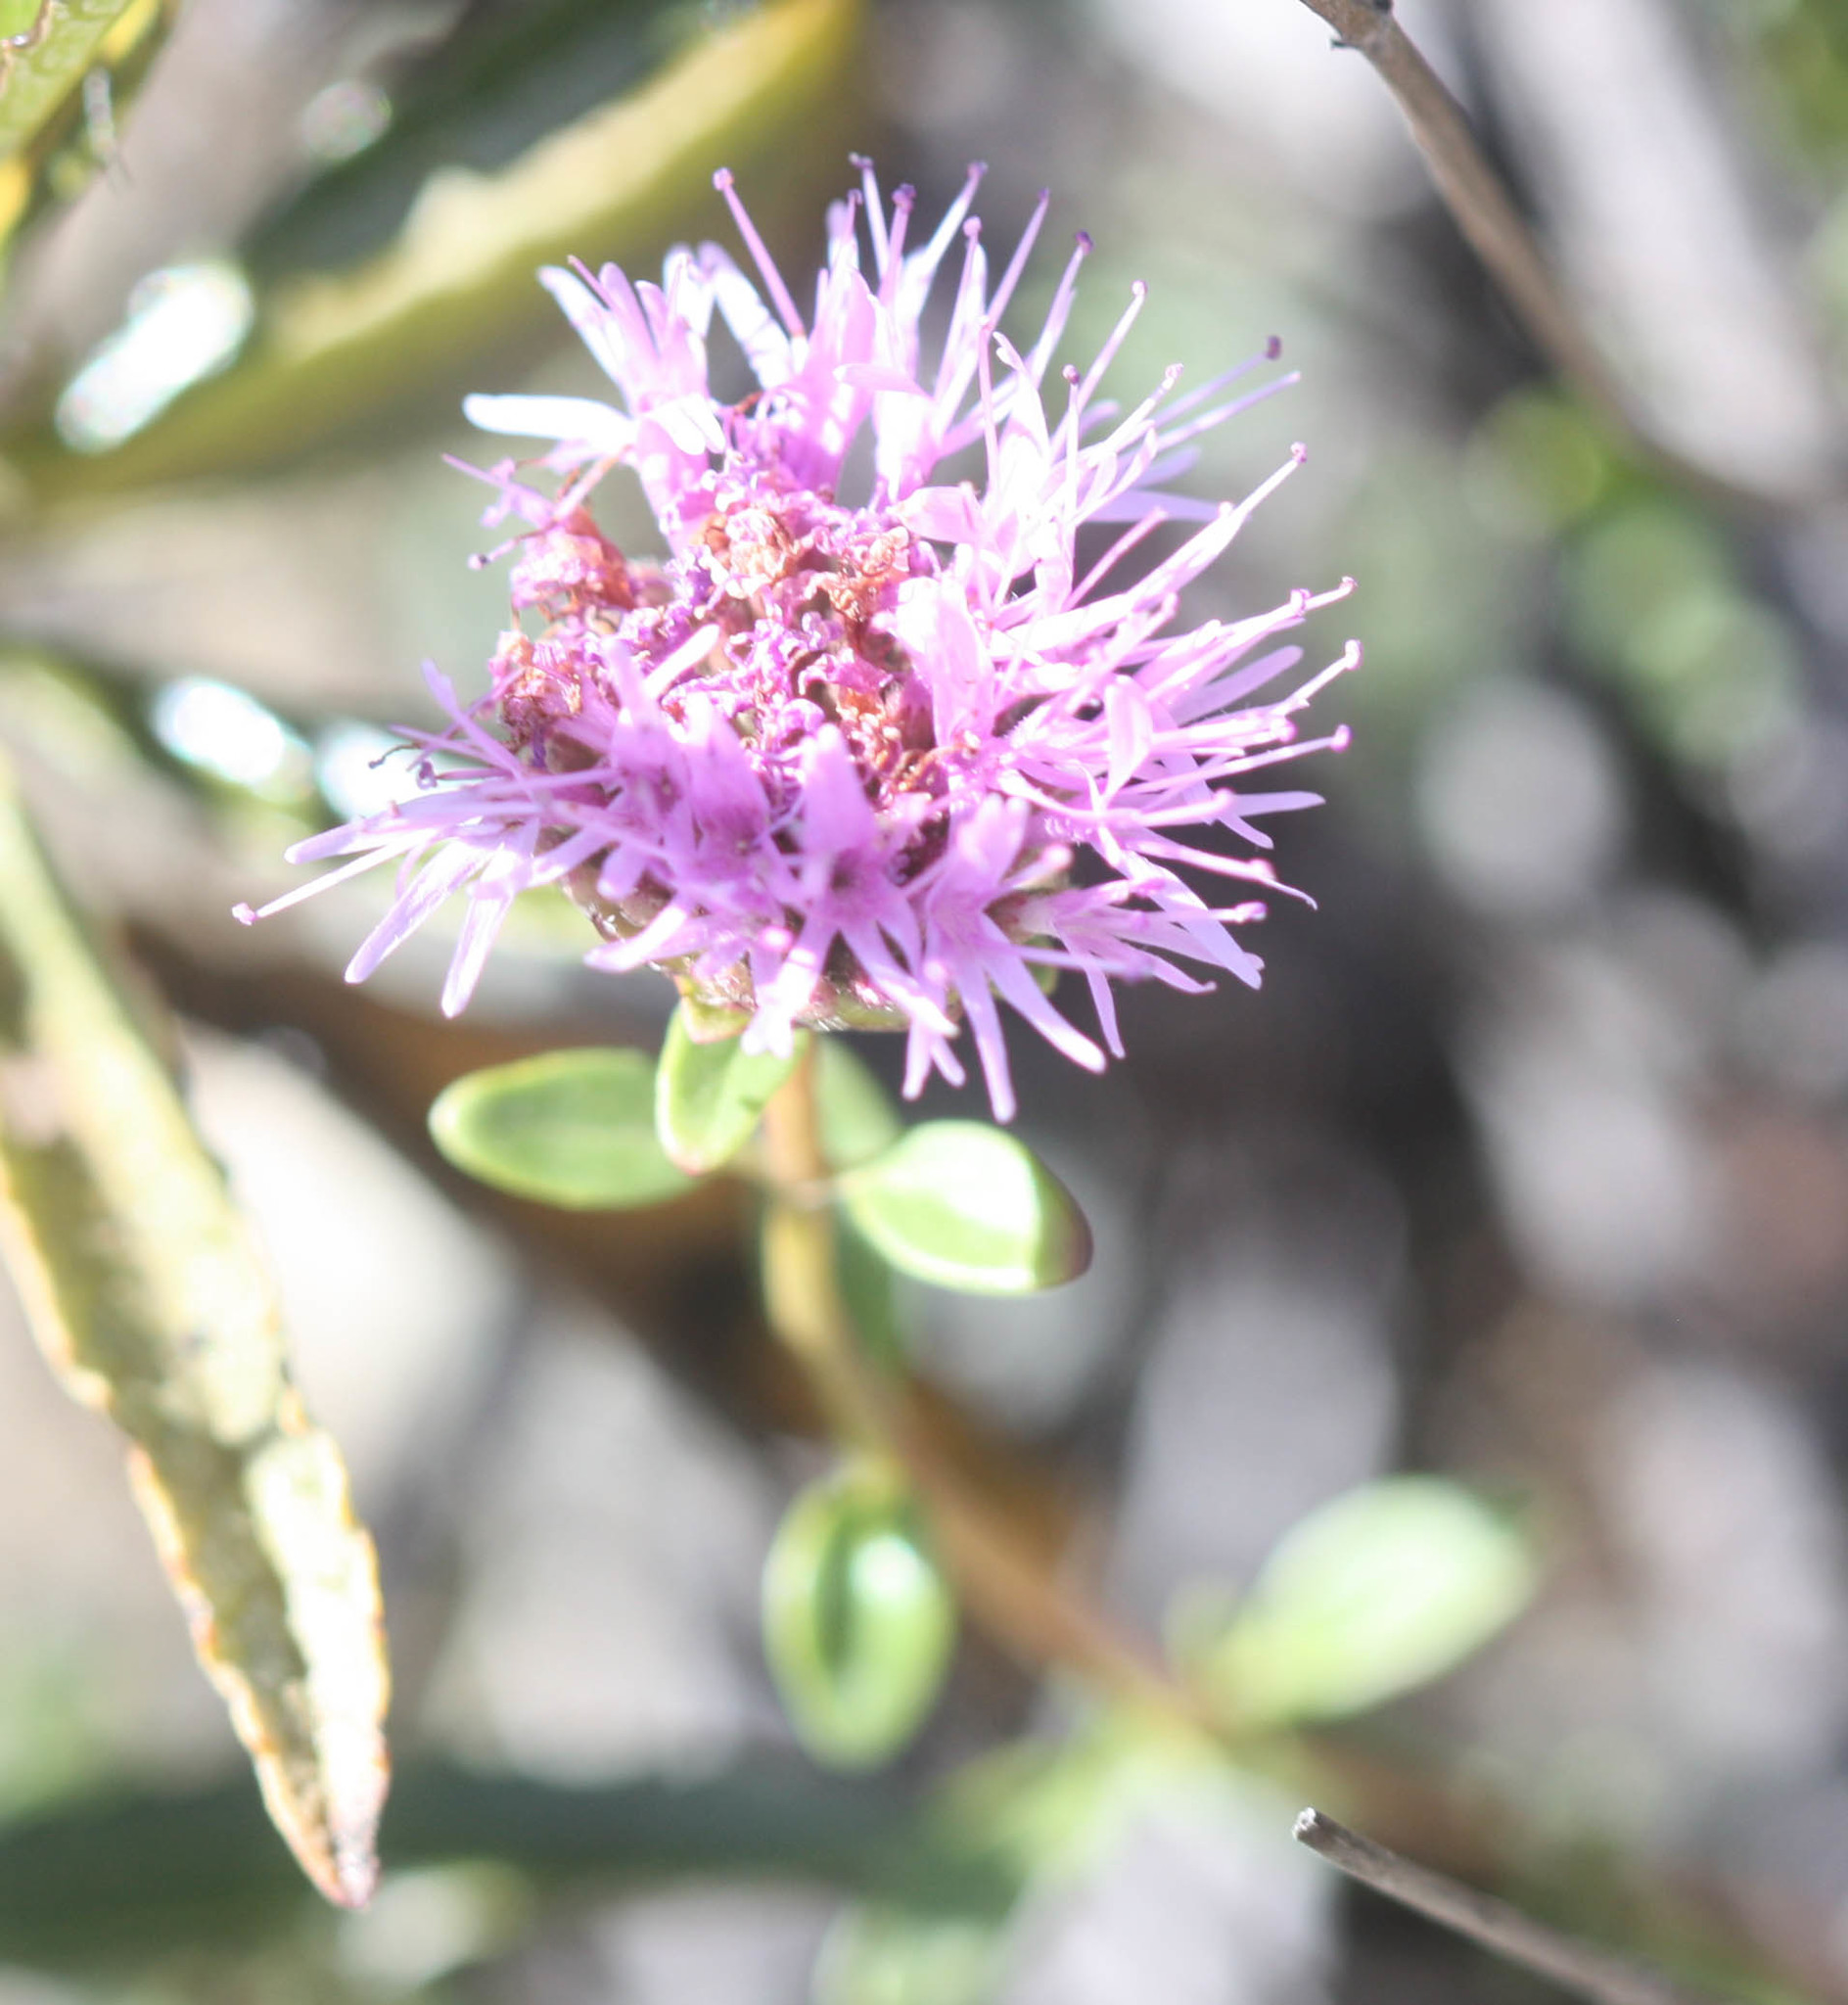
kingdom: Plantae
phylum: Tracheophyta
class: Magnoliopsida
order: Lamiales
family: Lamiaceae
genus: Monardella
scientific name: Monardella purpurea
